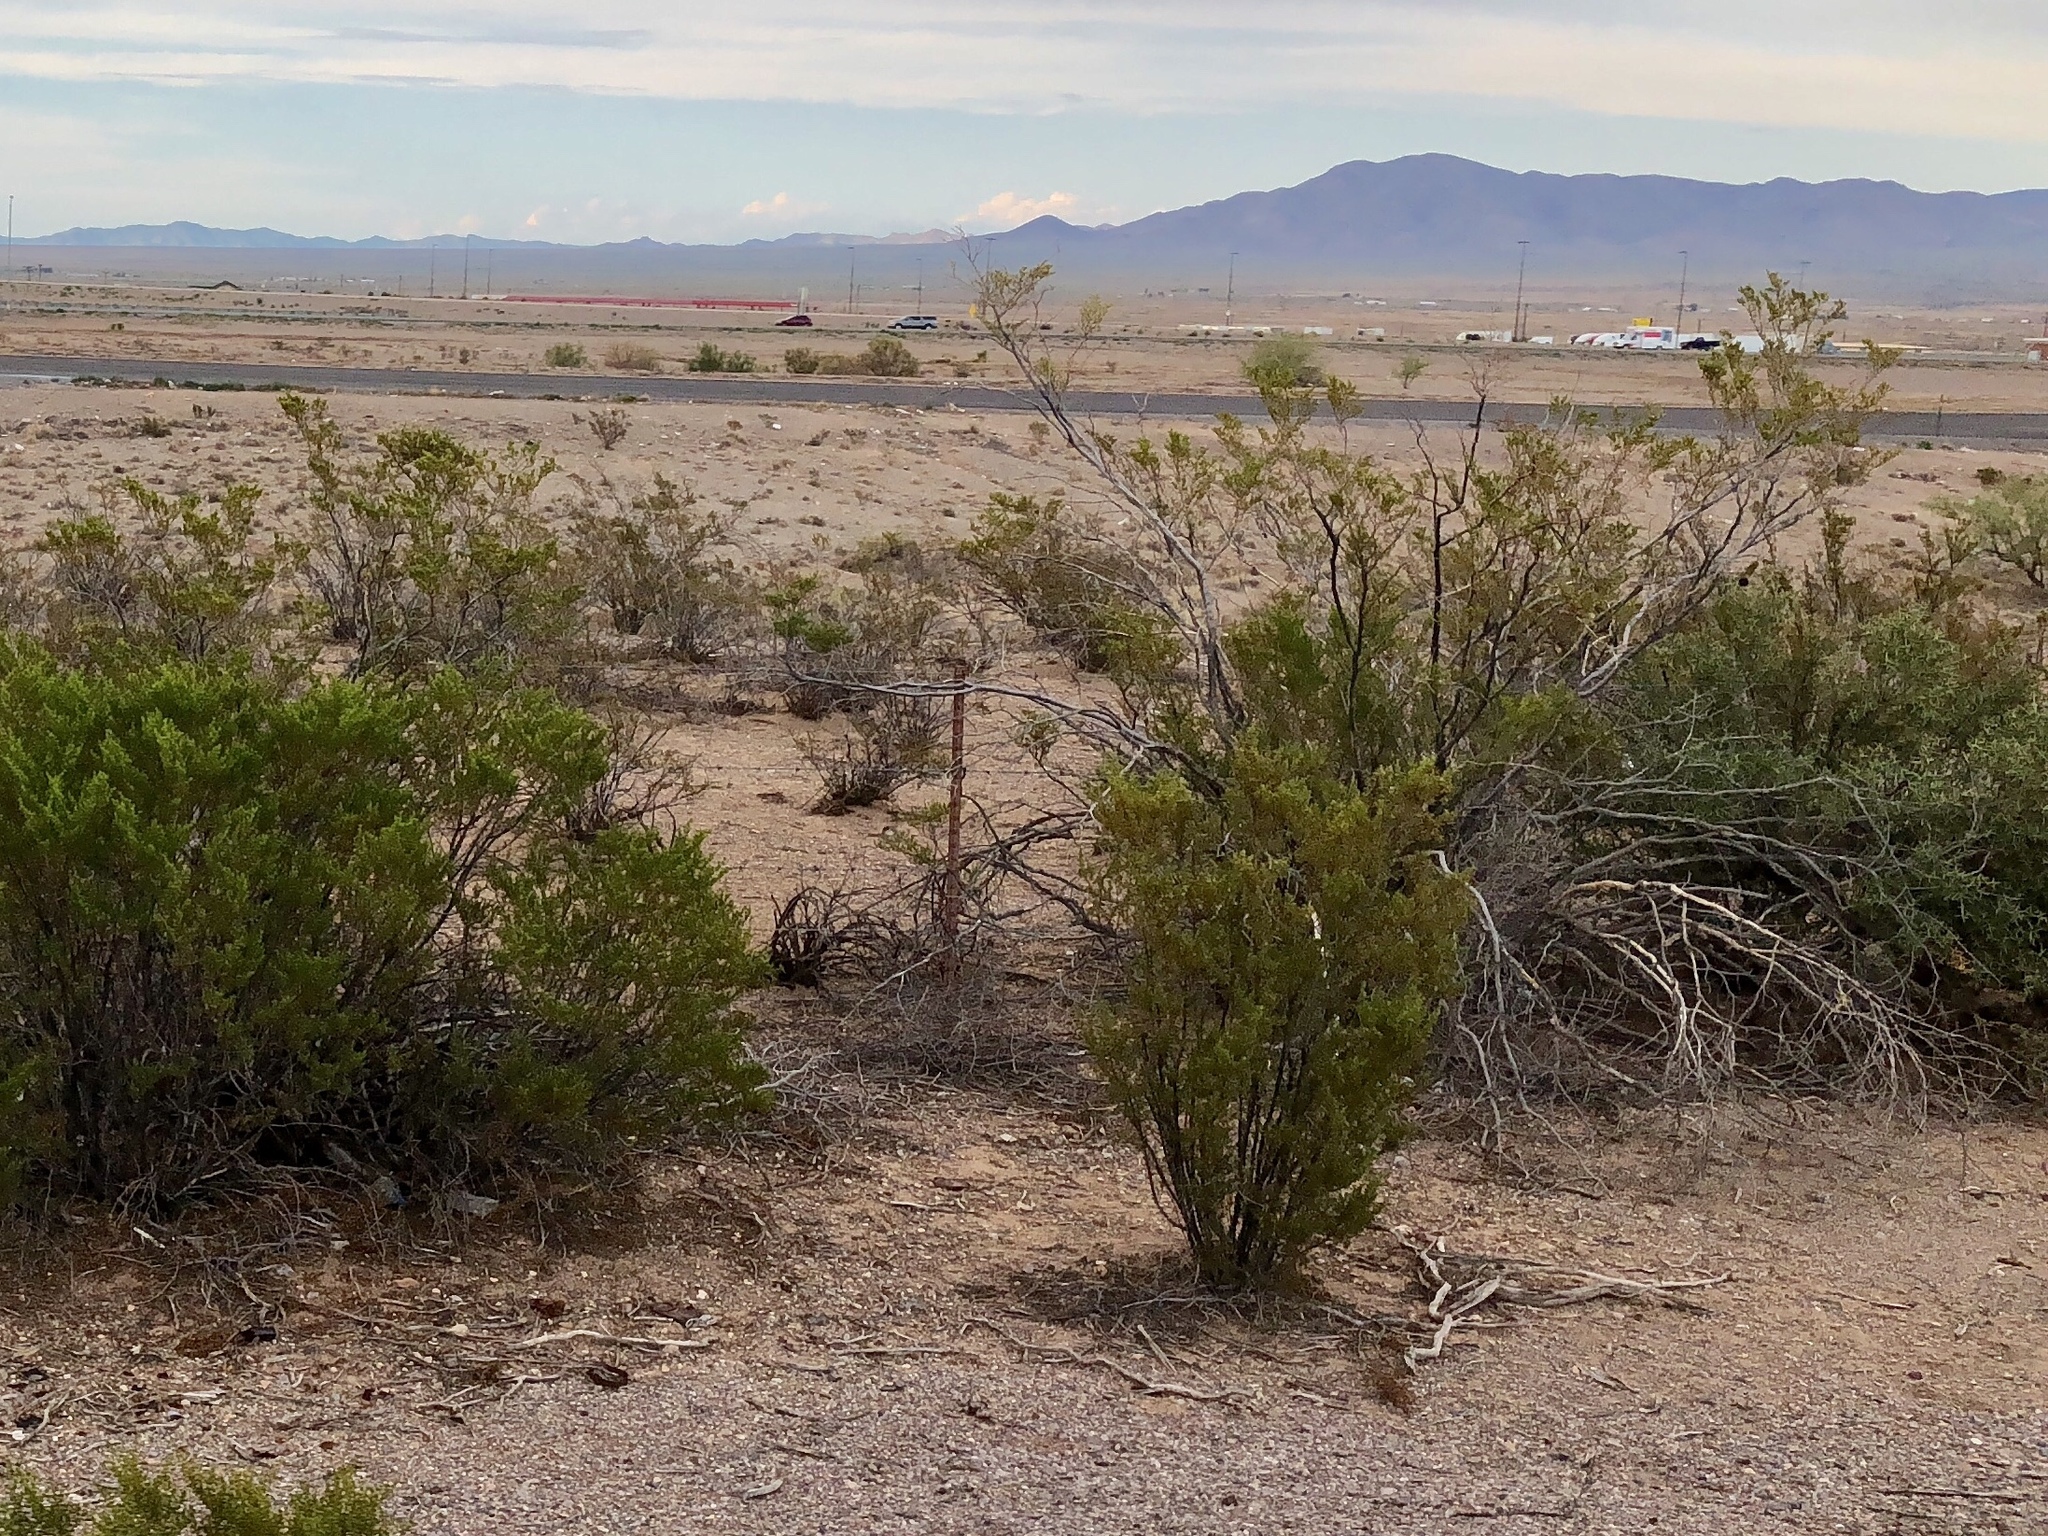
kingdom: Plantae
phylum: Tracheophyta
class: Magnoliopsida
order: Zygophyllales
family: Zygophyllaceae
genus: Larrea
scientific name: Larrea tridentata
